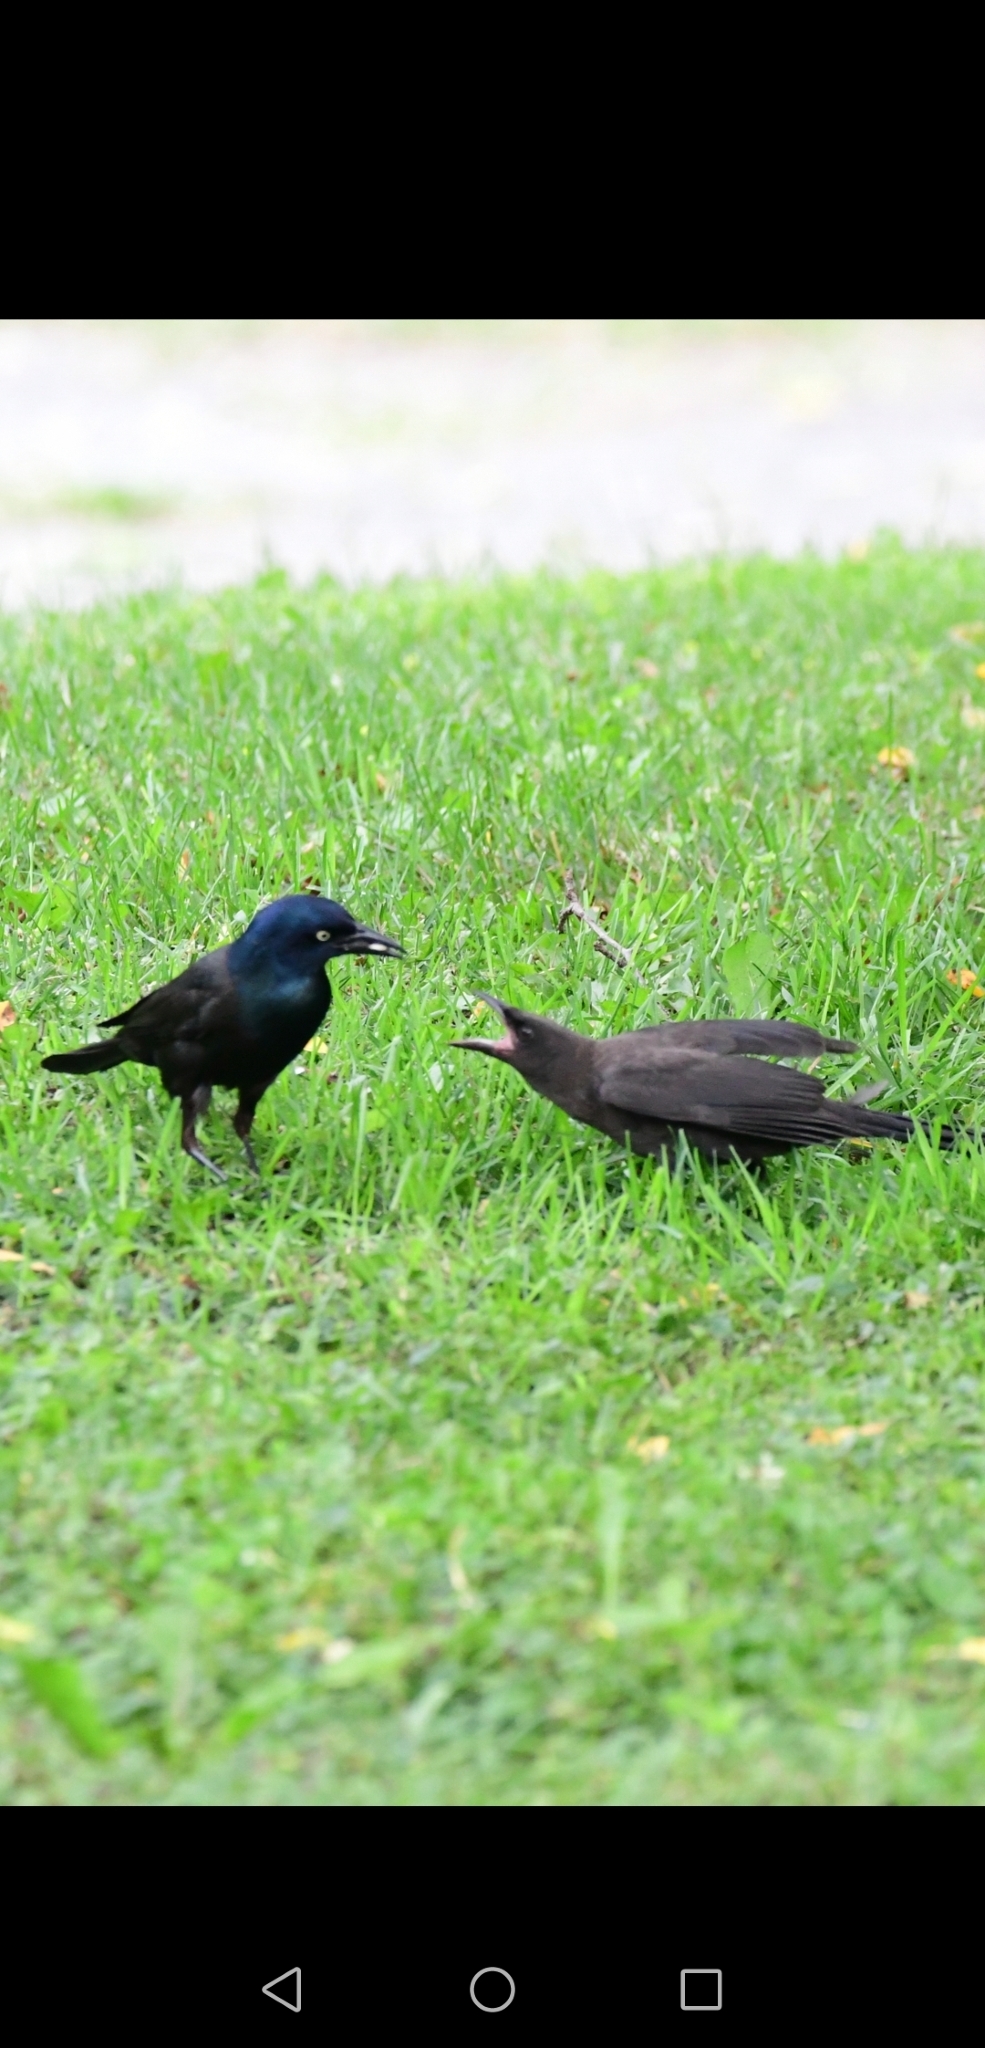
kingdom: Animalia
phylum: Chordata
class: Aves
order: Passeriformes
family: Icteridae
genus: Quiscalus
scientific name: Quiscalus quiscula
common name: Common grackle
